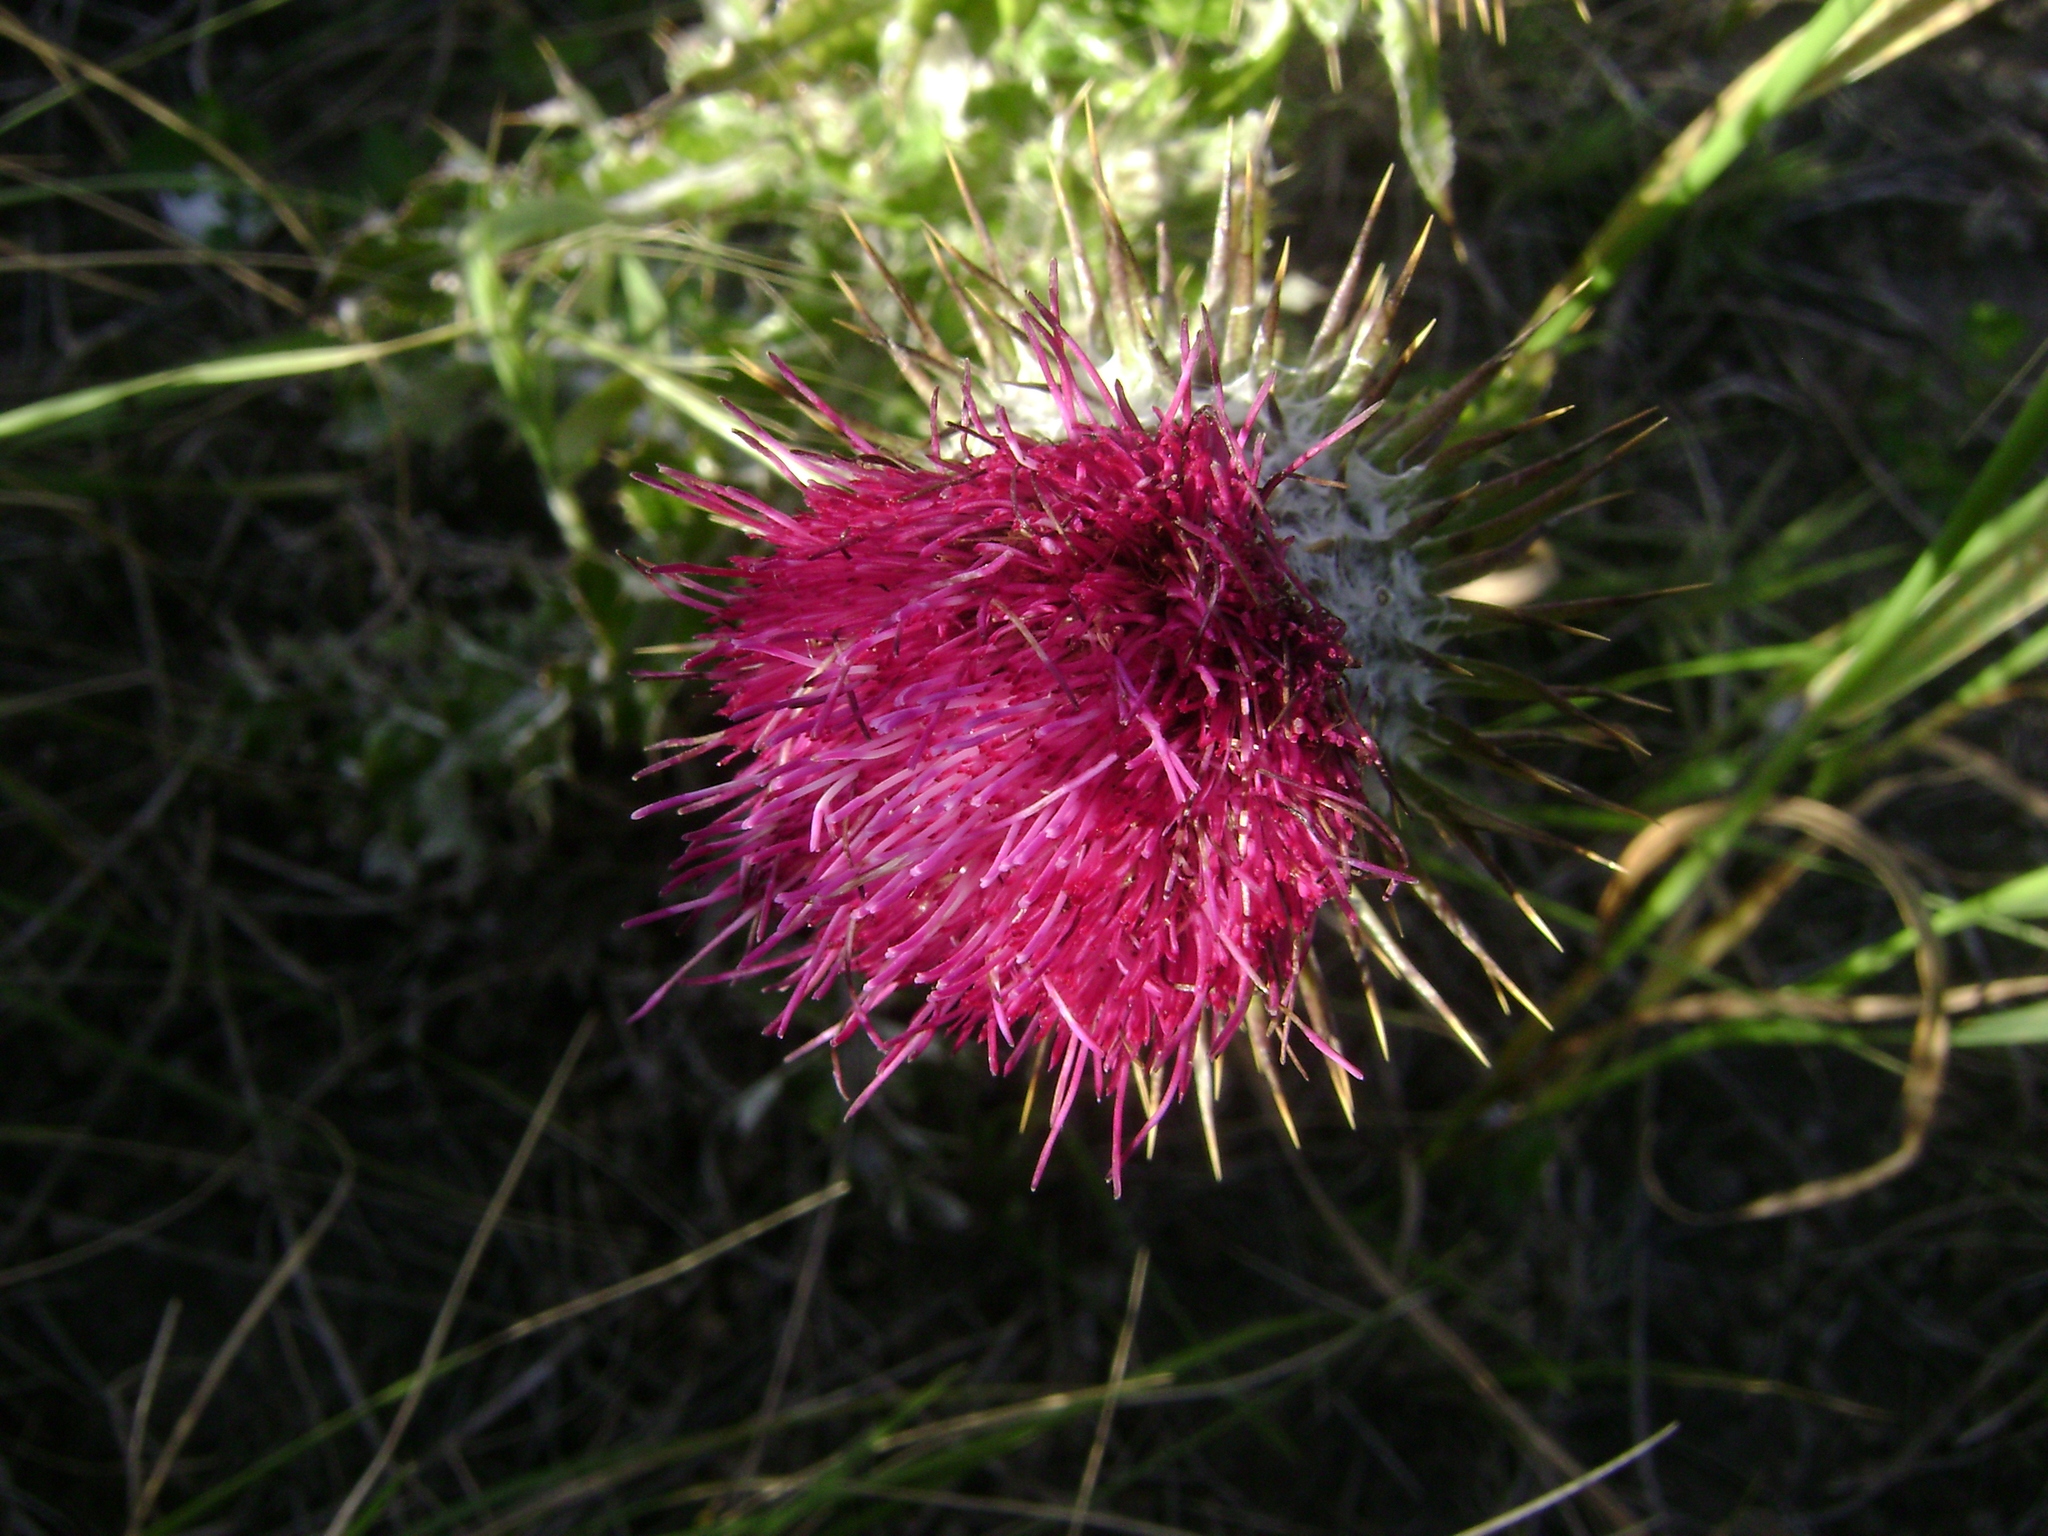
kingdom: Plantae
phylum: Tracheophyta
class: Magnoliopsida
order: Asterales
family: Asteraceae
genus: Cirsium
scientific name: Cirsium occidentale
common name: Western thistle
